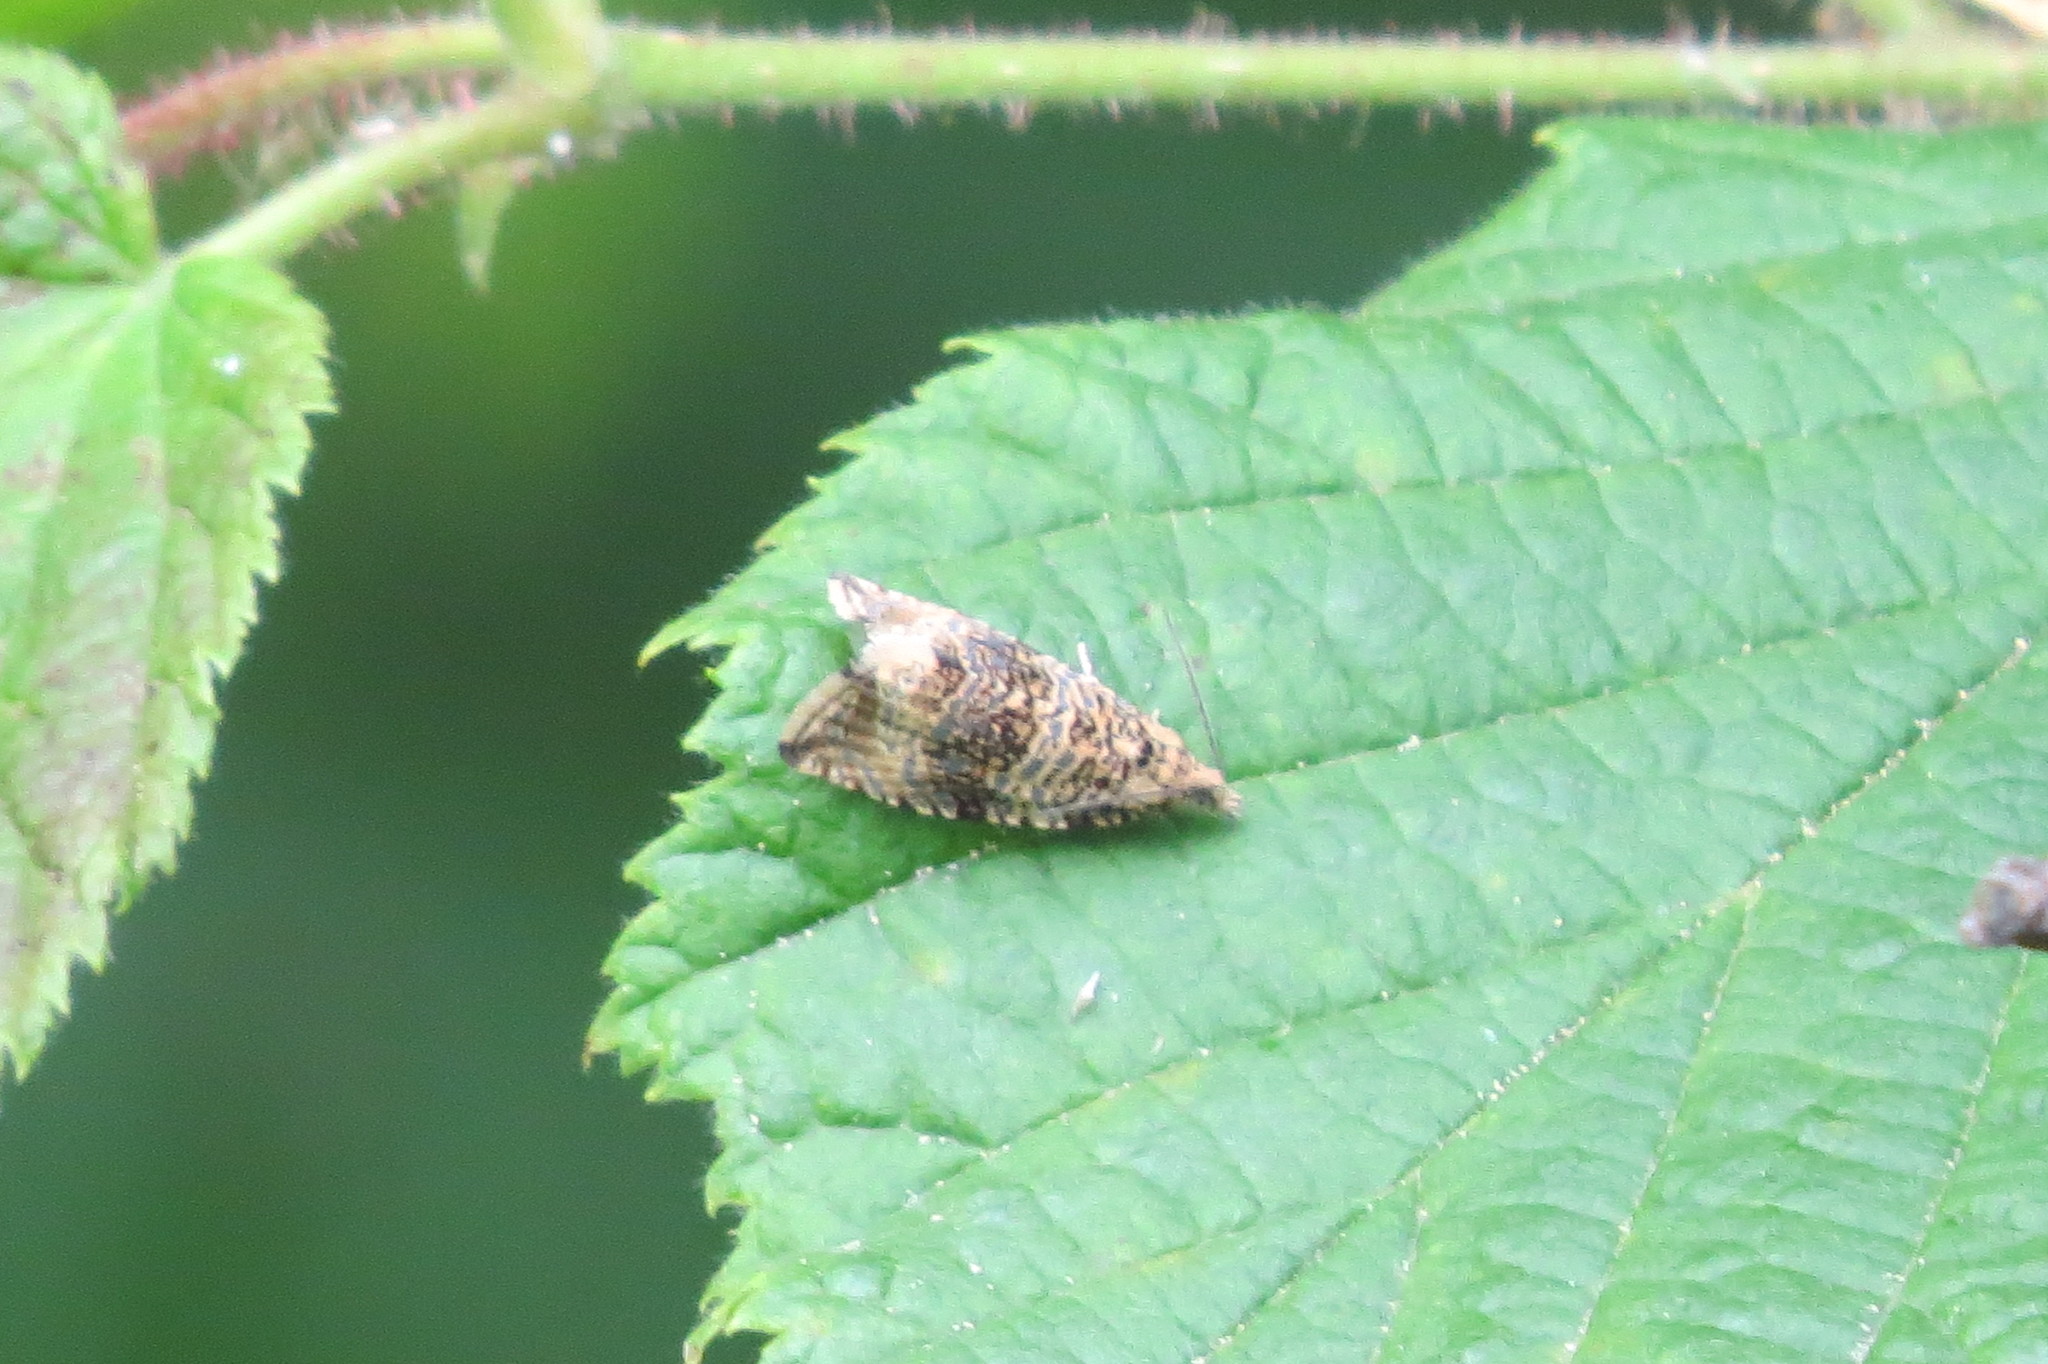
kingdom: Animalia
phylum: Arthropoda
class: Insecta
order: Lepidoptera
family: Tortricidae
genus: Syricoris
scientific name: Syricoris lacunana
